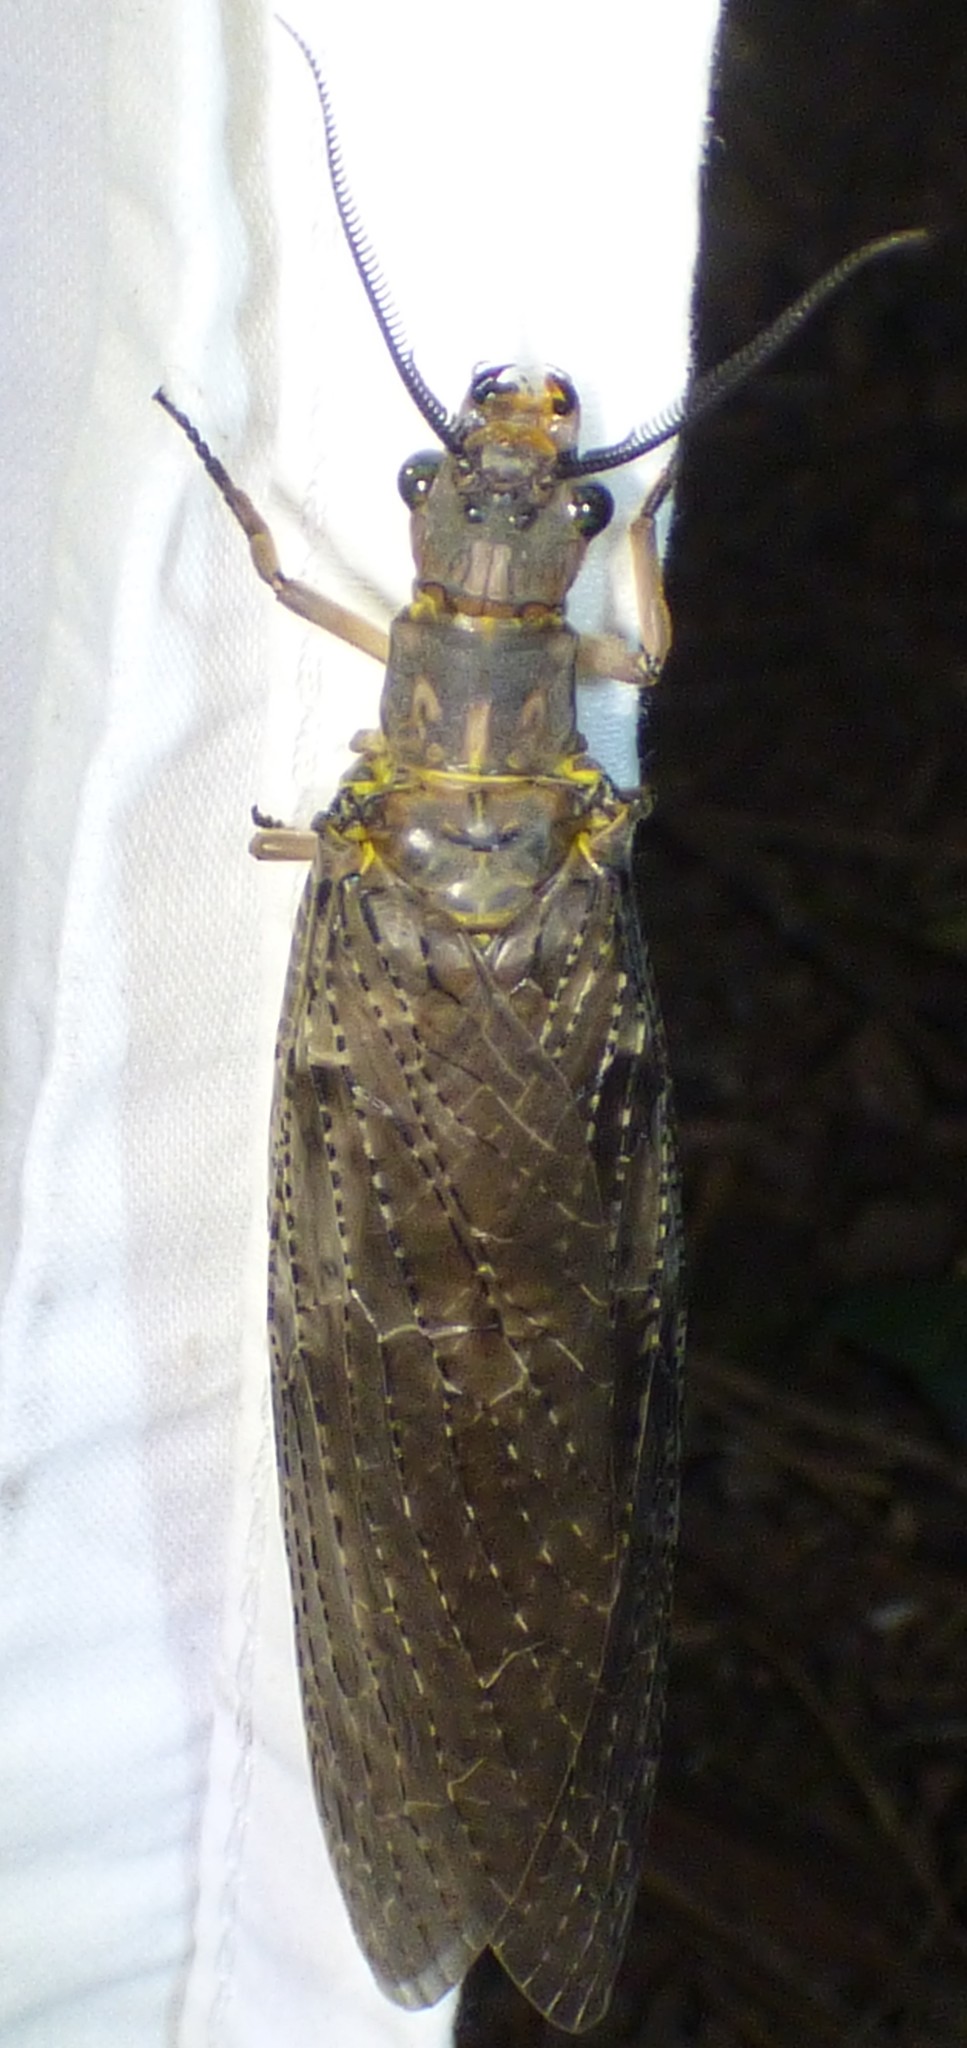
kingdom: Animalia
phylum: Arthropoda
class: Insecta
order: Megaloptera
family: Corydalidae
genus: Chauliodes
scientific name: Chauliodes pectinicornis
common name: Summer fishfly
